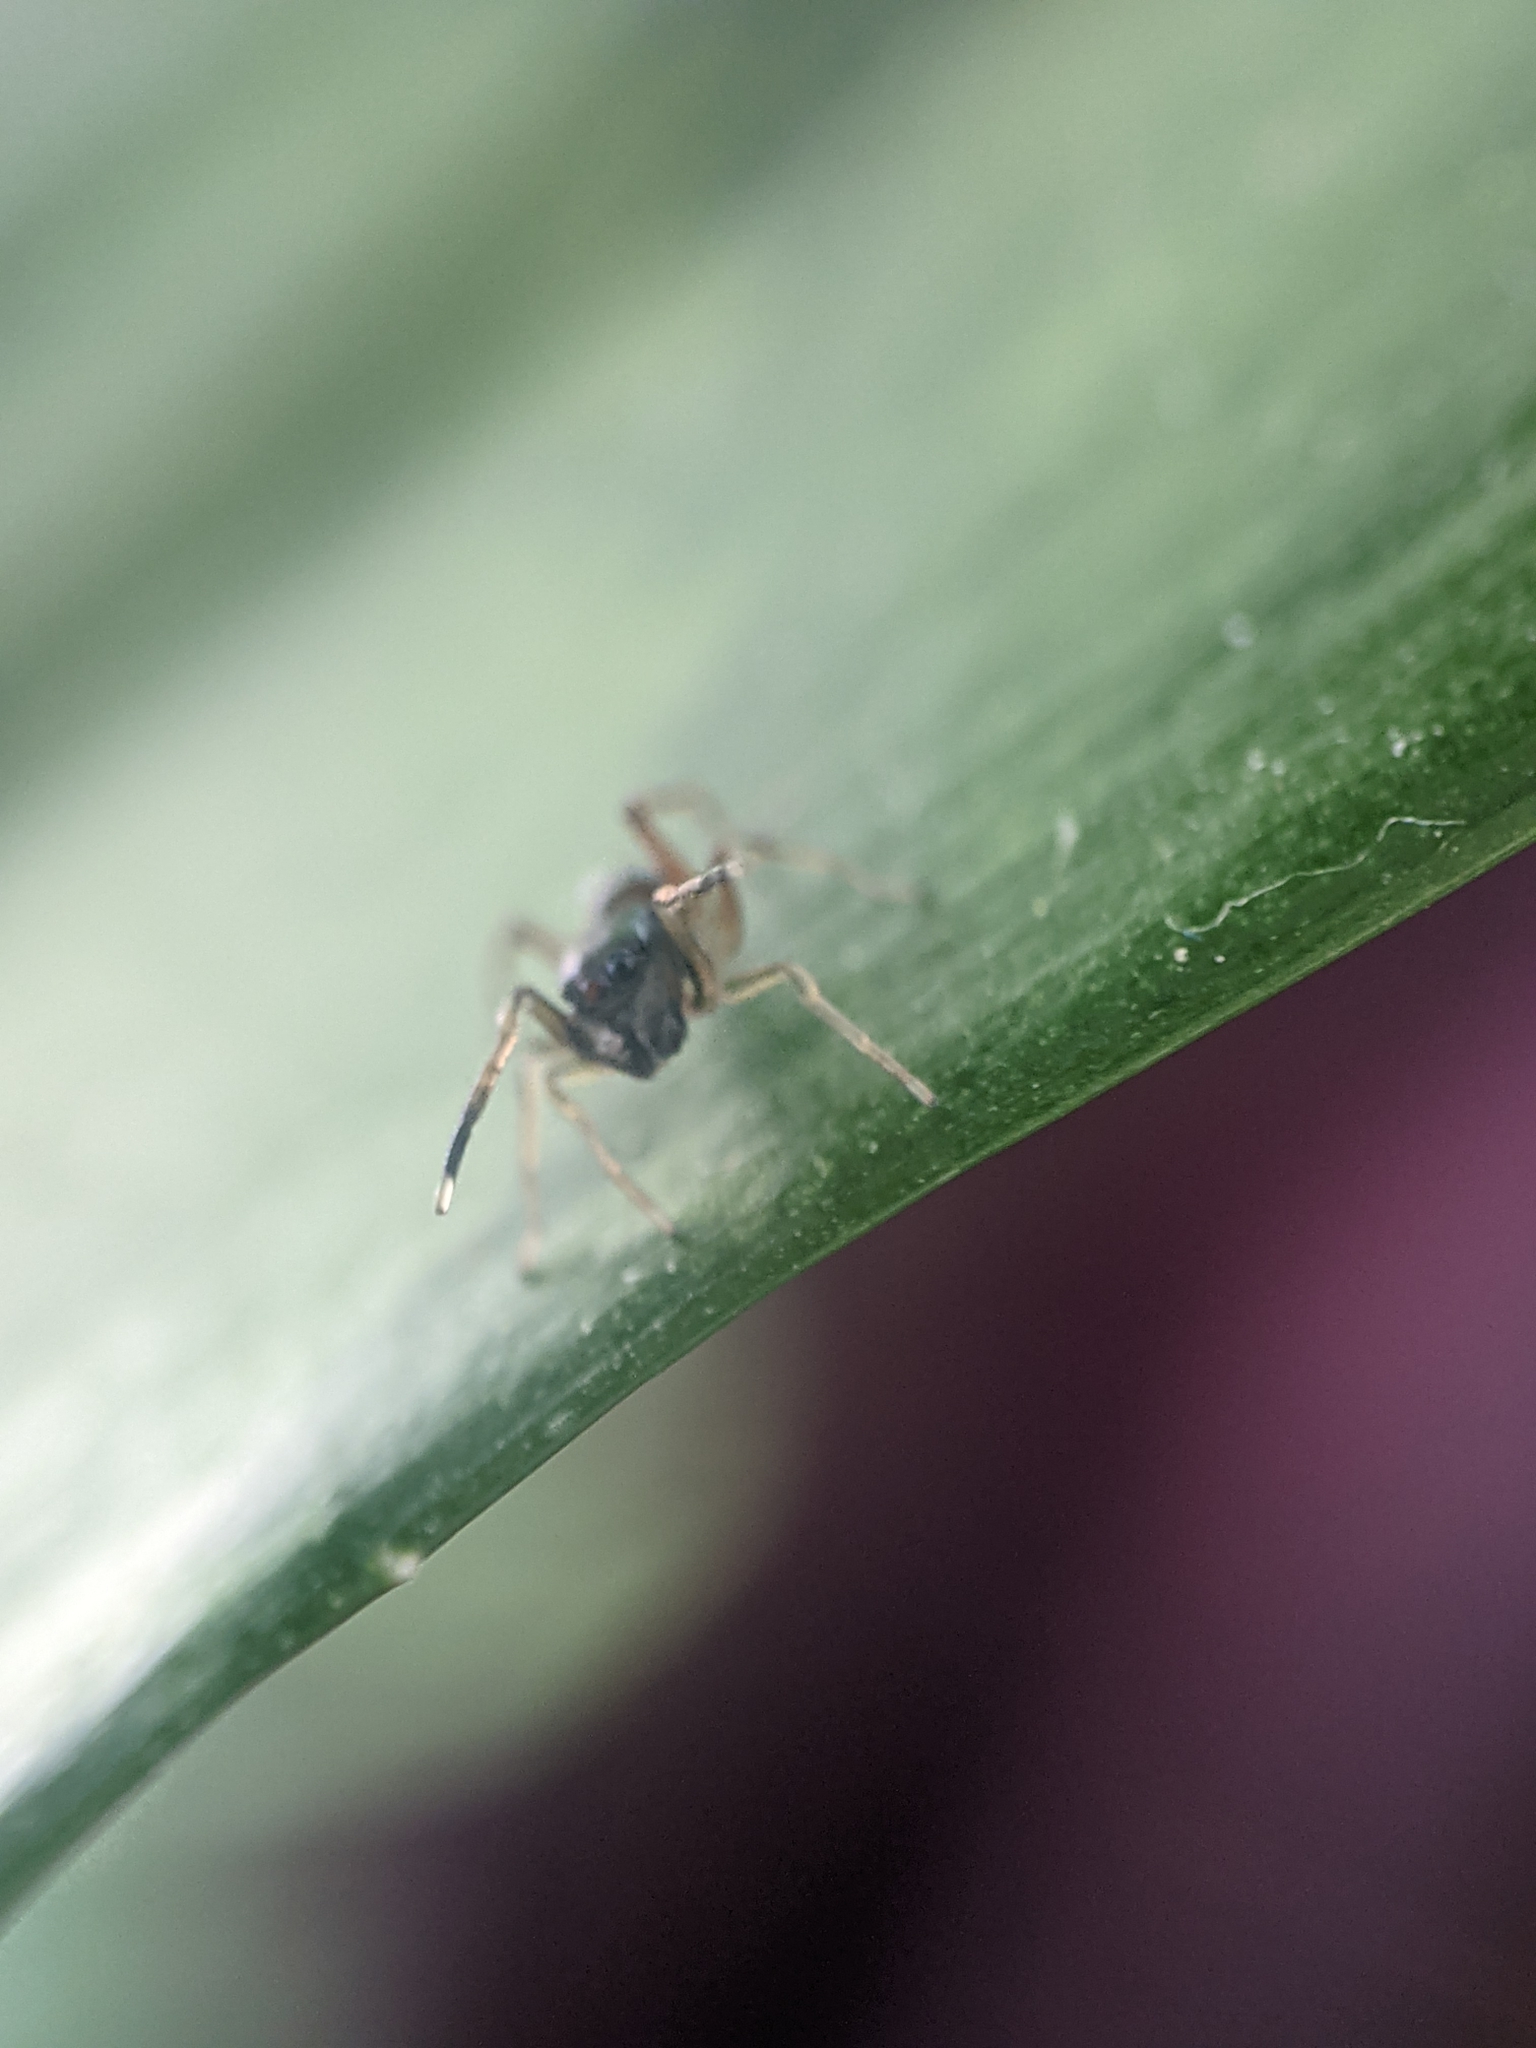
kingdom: Animalia
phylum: Arthropoda
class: Arachnida
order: Araneae
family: Salticidae
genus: Myrmarachne
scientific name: Myrmarachne formicaria
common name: Ant mimic jumping spider
